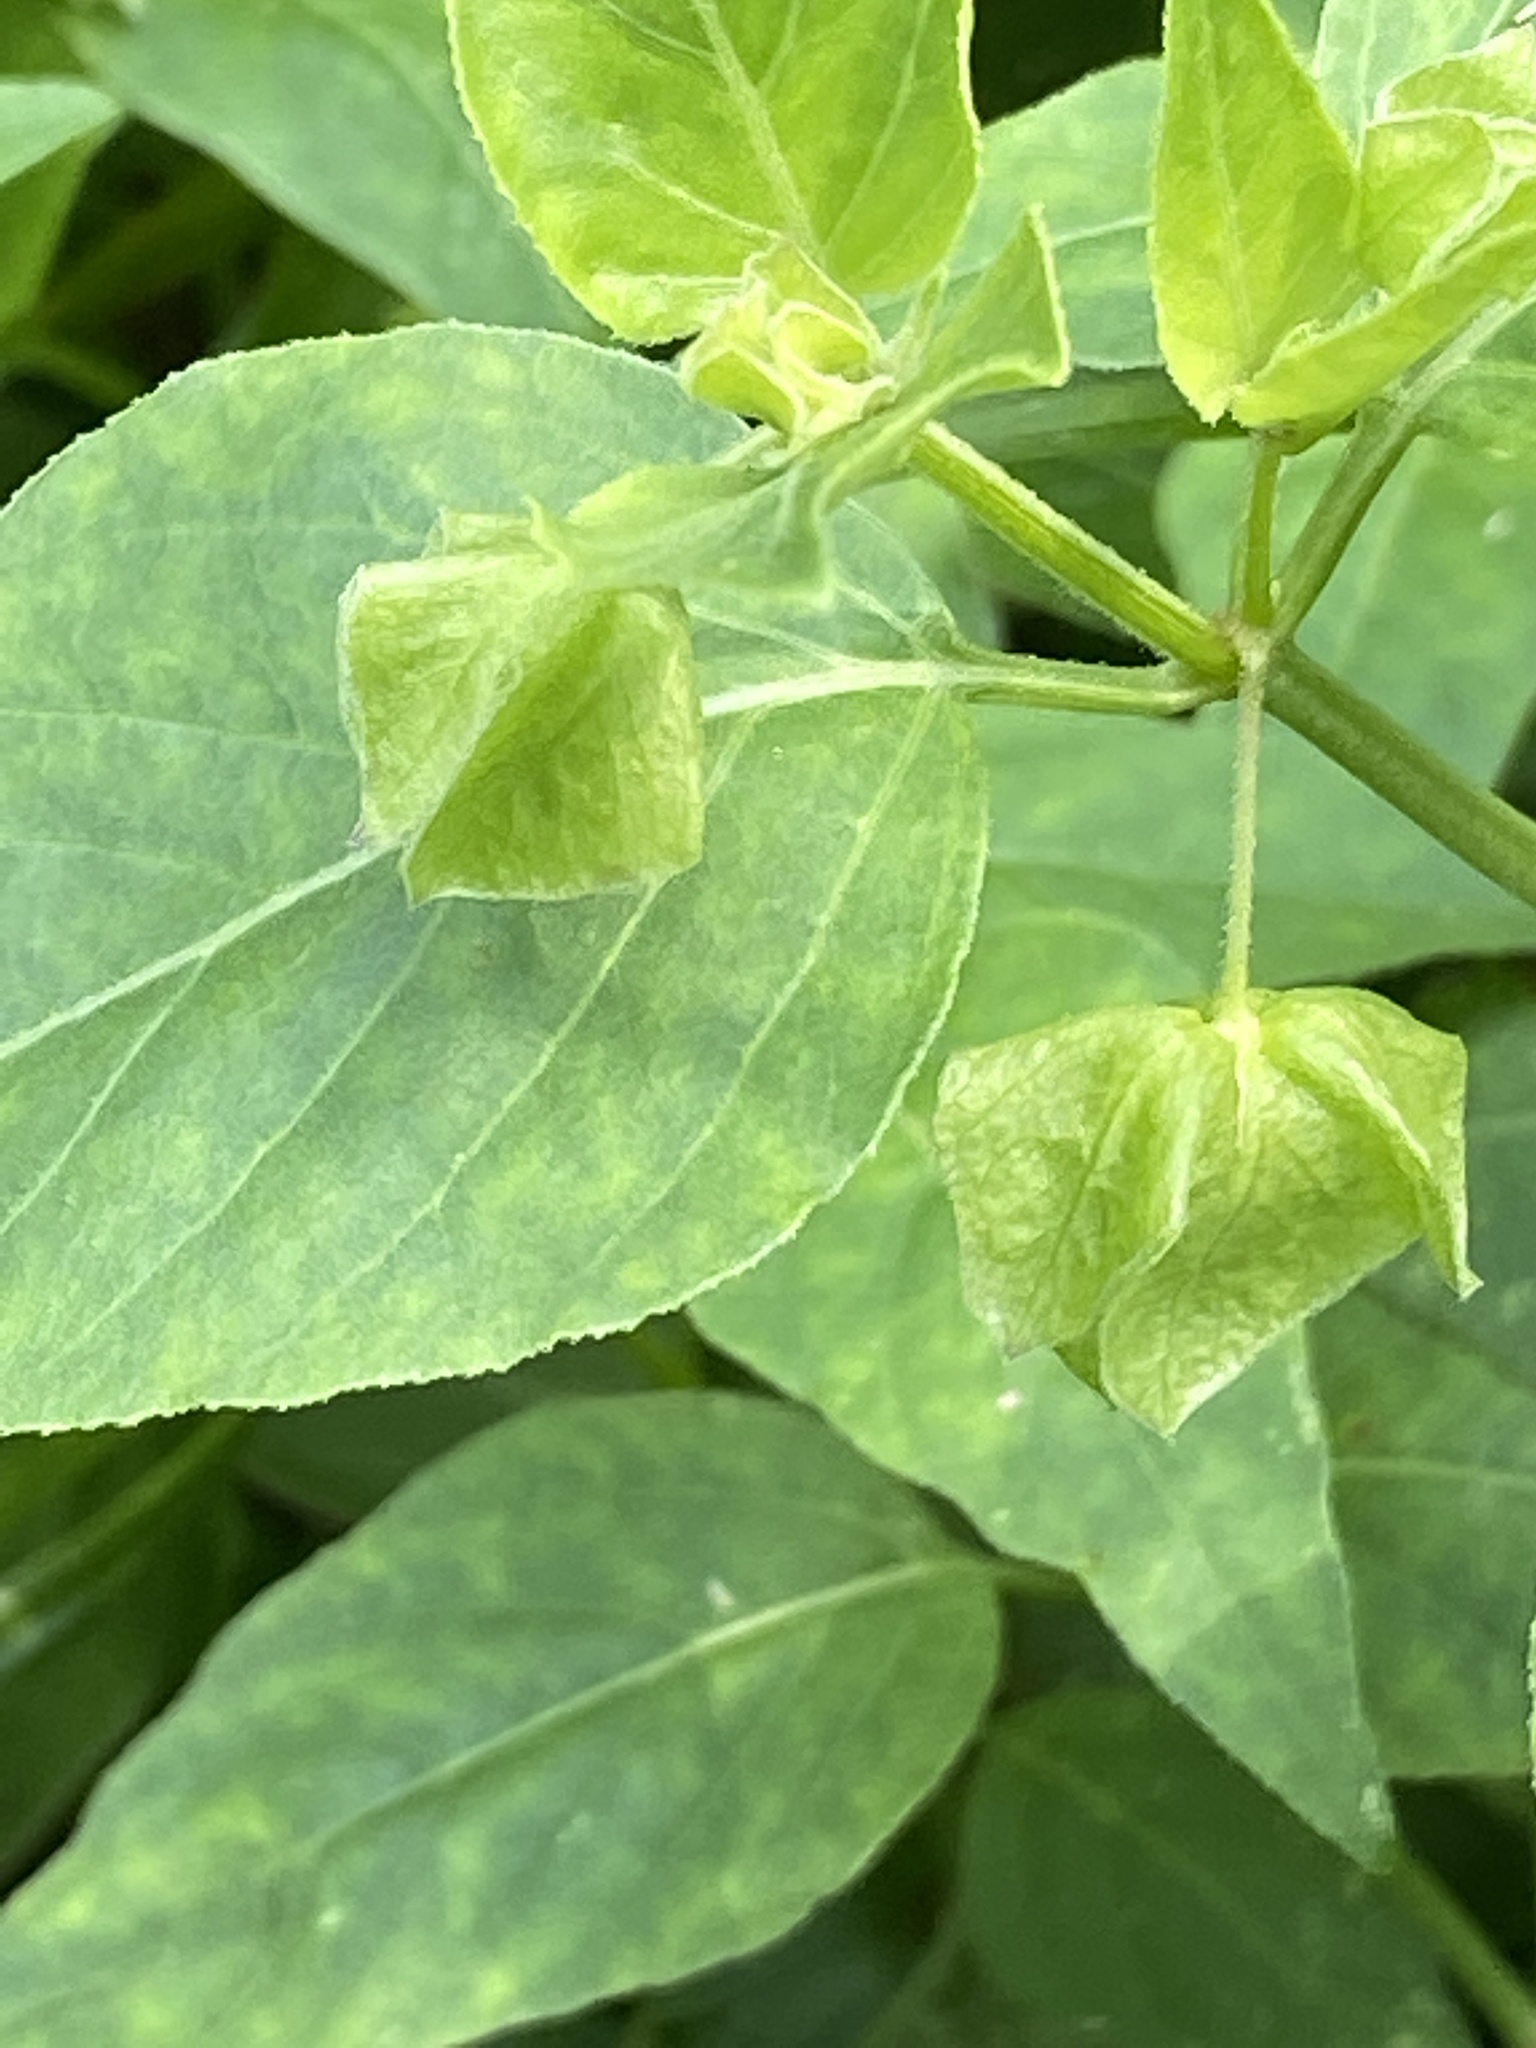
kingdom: Plantae
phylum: Tracheophyta
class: Magnoliopsida
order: Caryophyllales
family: Nyctaginaceae
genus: Mirabilis
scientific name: Mirabilis nyctaginea
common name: Umbrella wort
